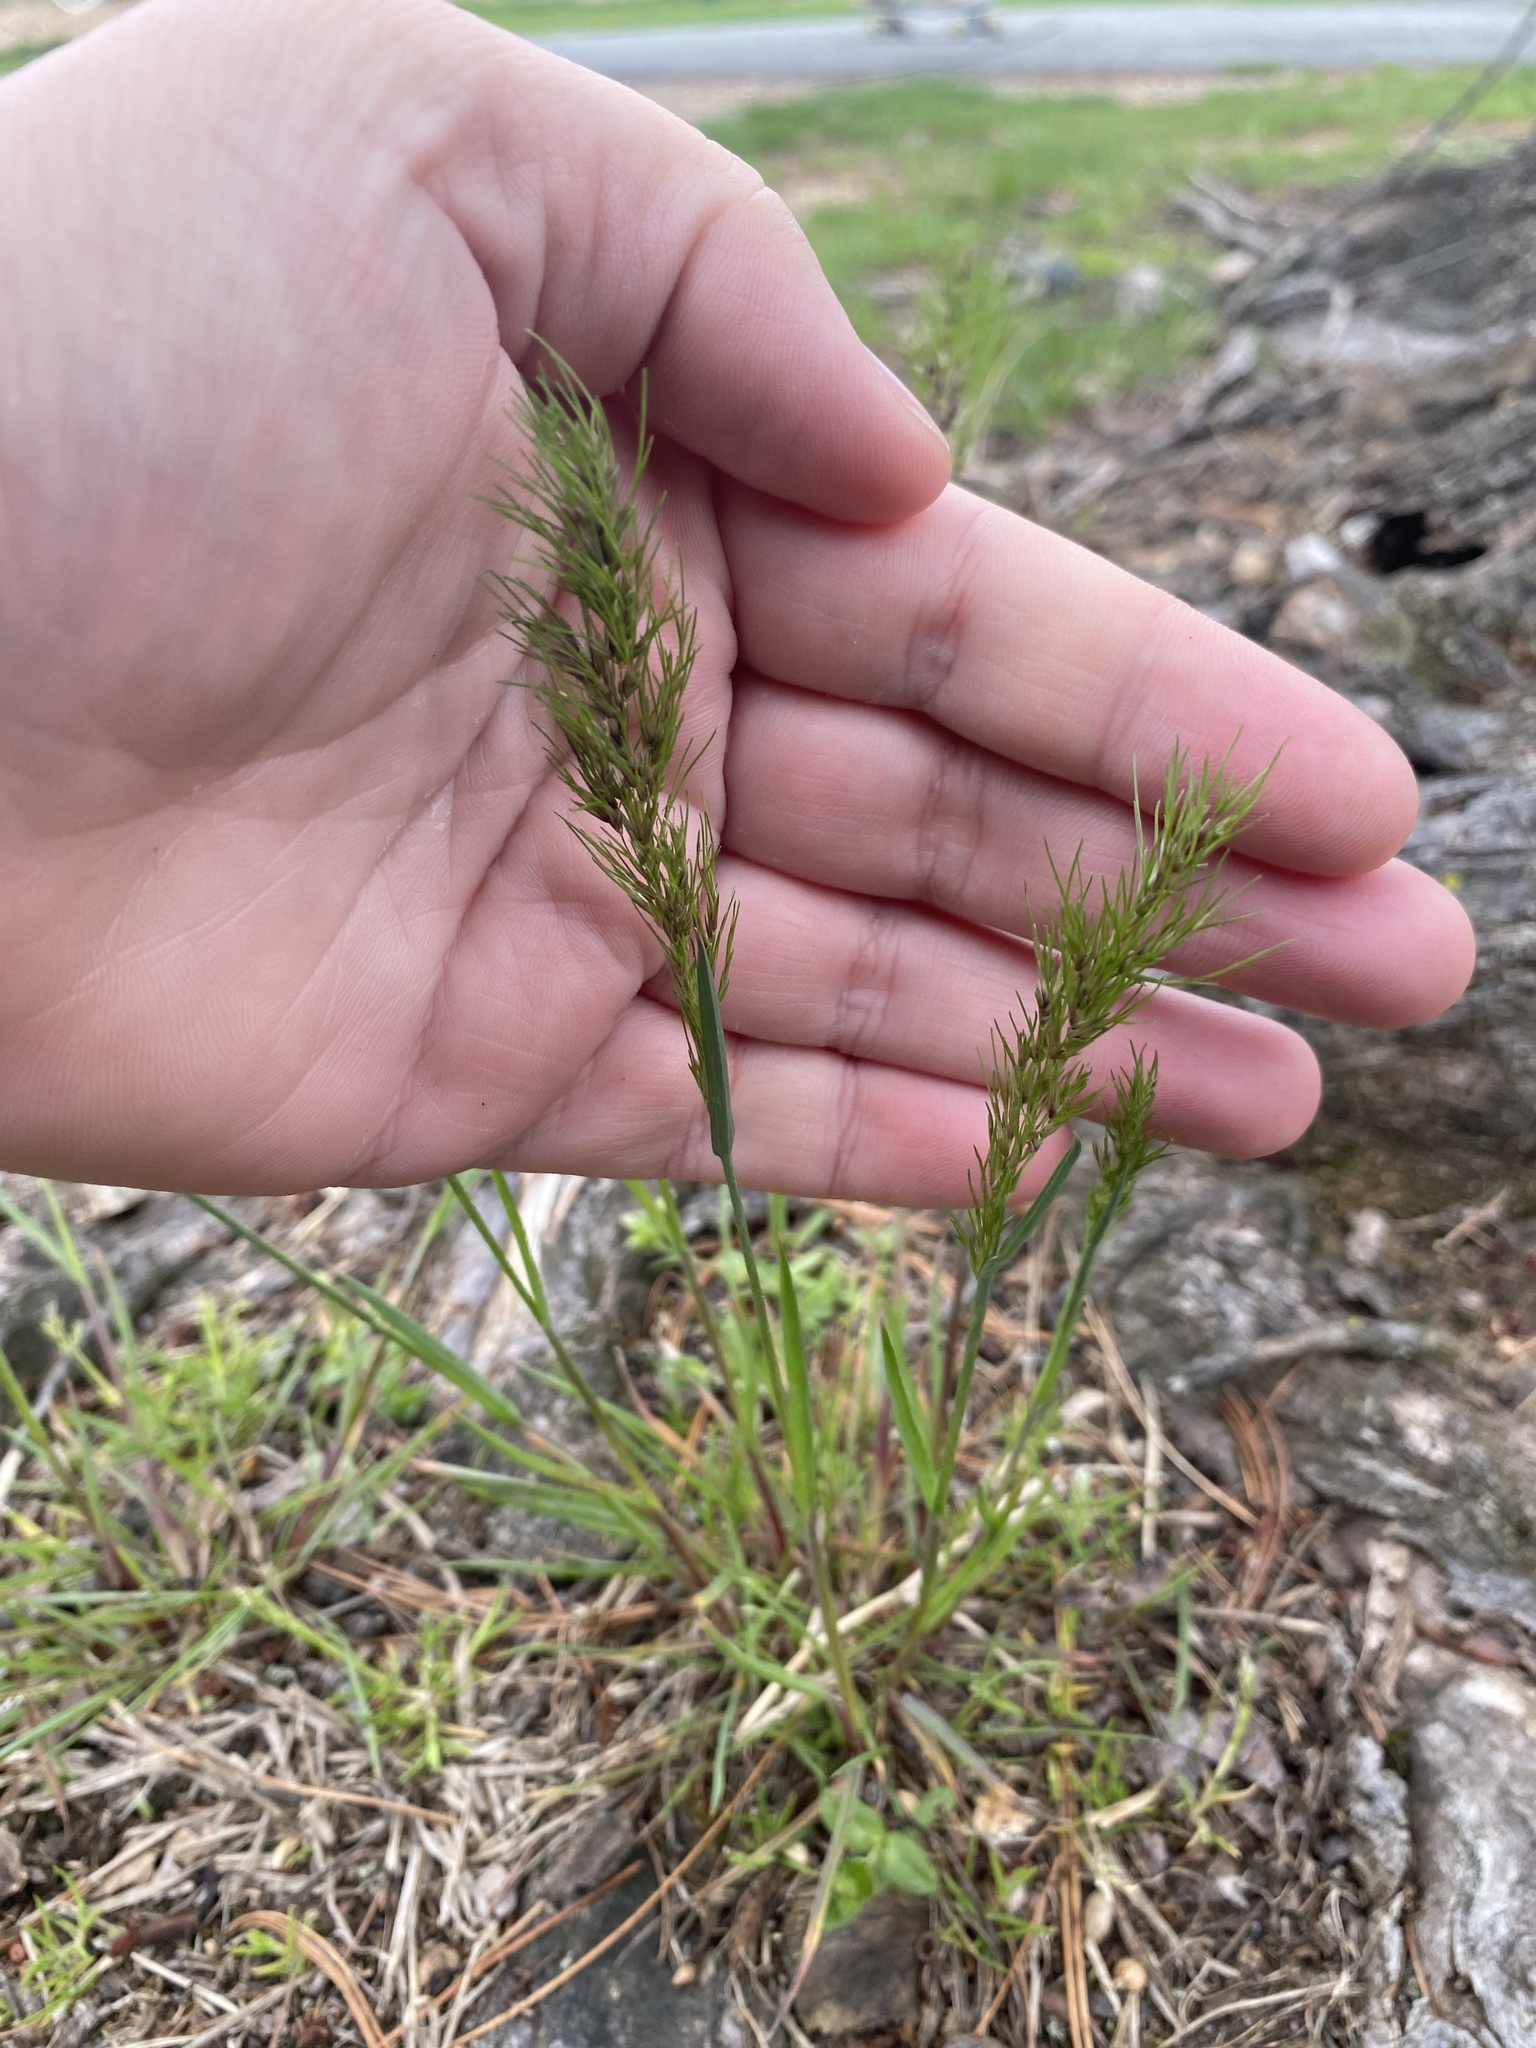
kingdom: Plantae
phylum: Tracheophyta
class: Liliopsida
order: Poales
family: Poaceae
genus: Poa
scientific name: Poa bulbosa
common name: Bulbous bluegrass
